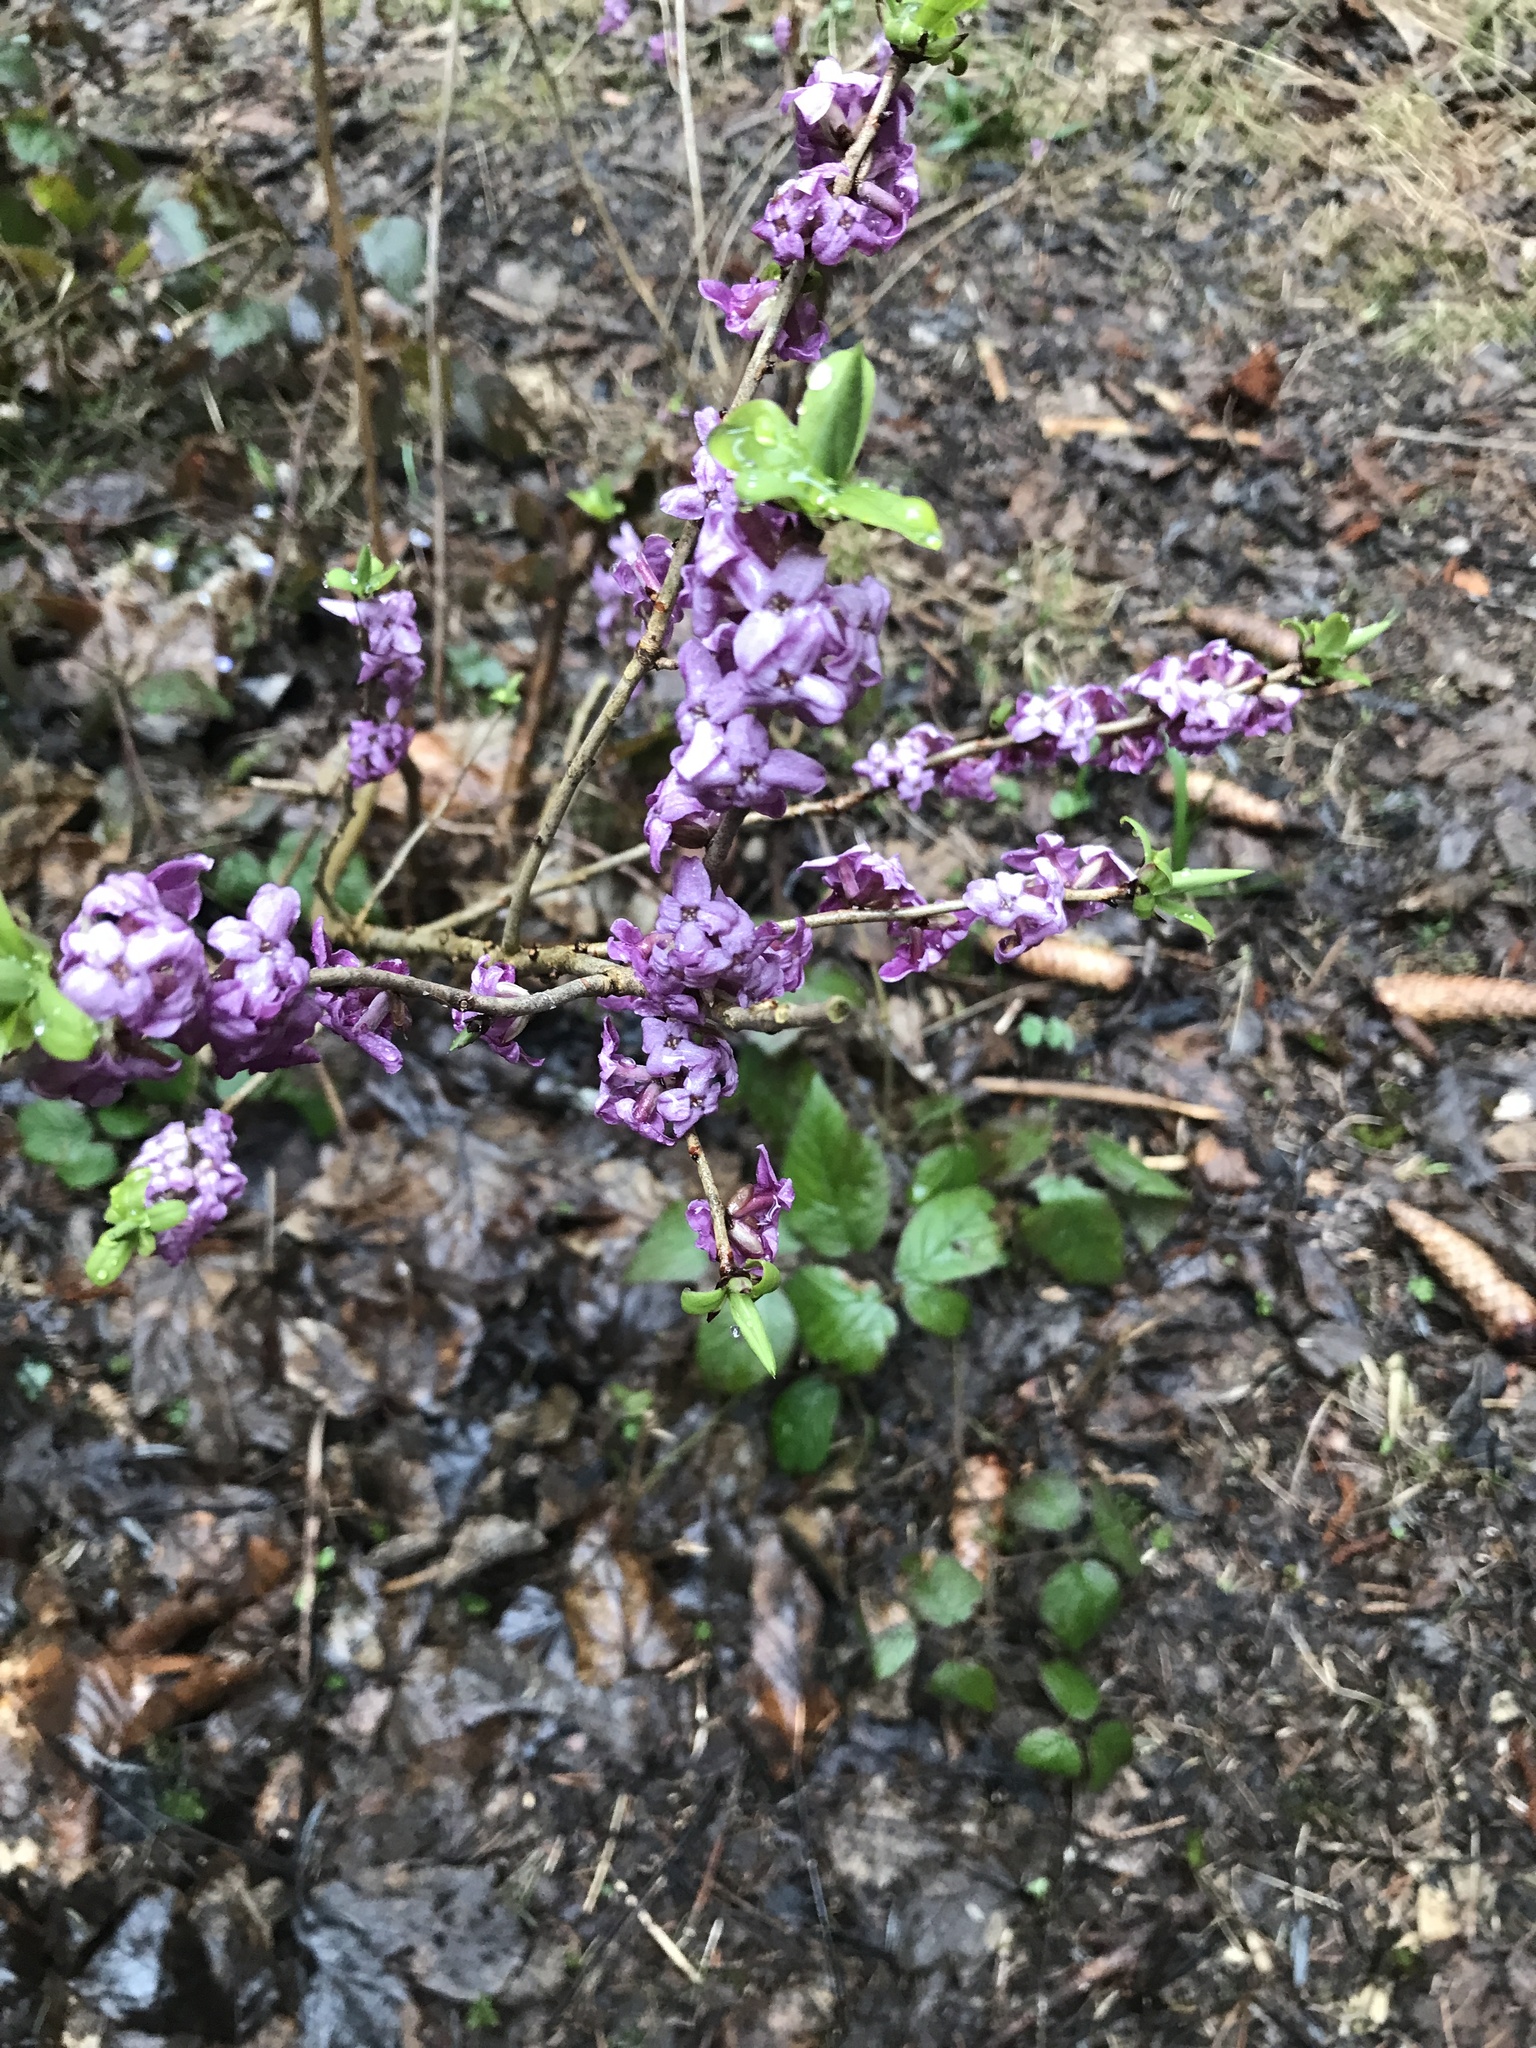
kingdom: Plantae
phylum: Tracheophyta
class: Magnoliopsida
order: Malvales
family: Thymelaeaceae
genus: Daphne
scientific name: Daphne mezereum
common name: Mezereon
